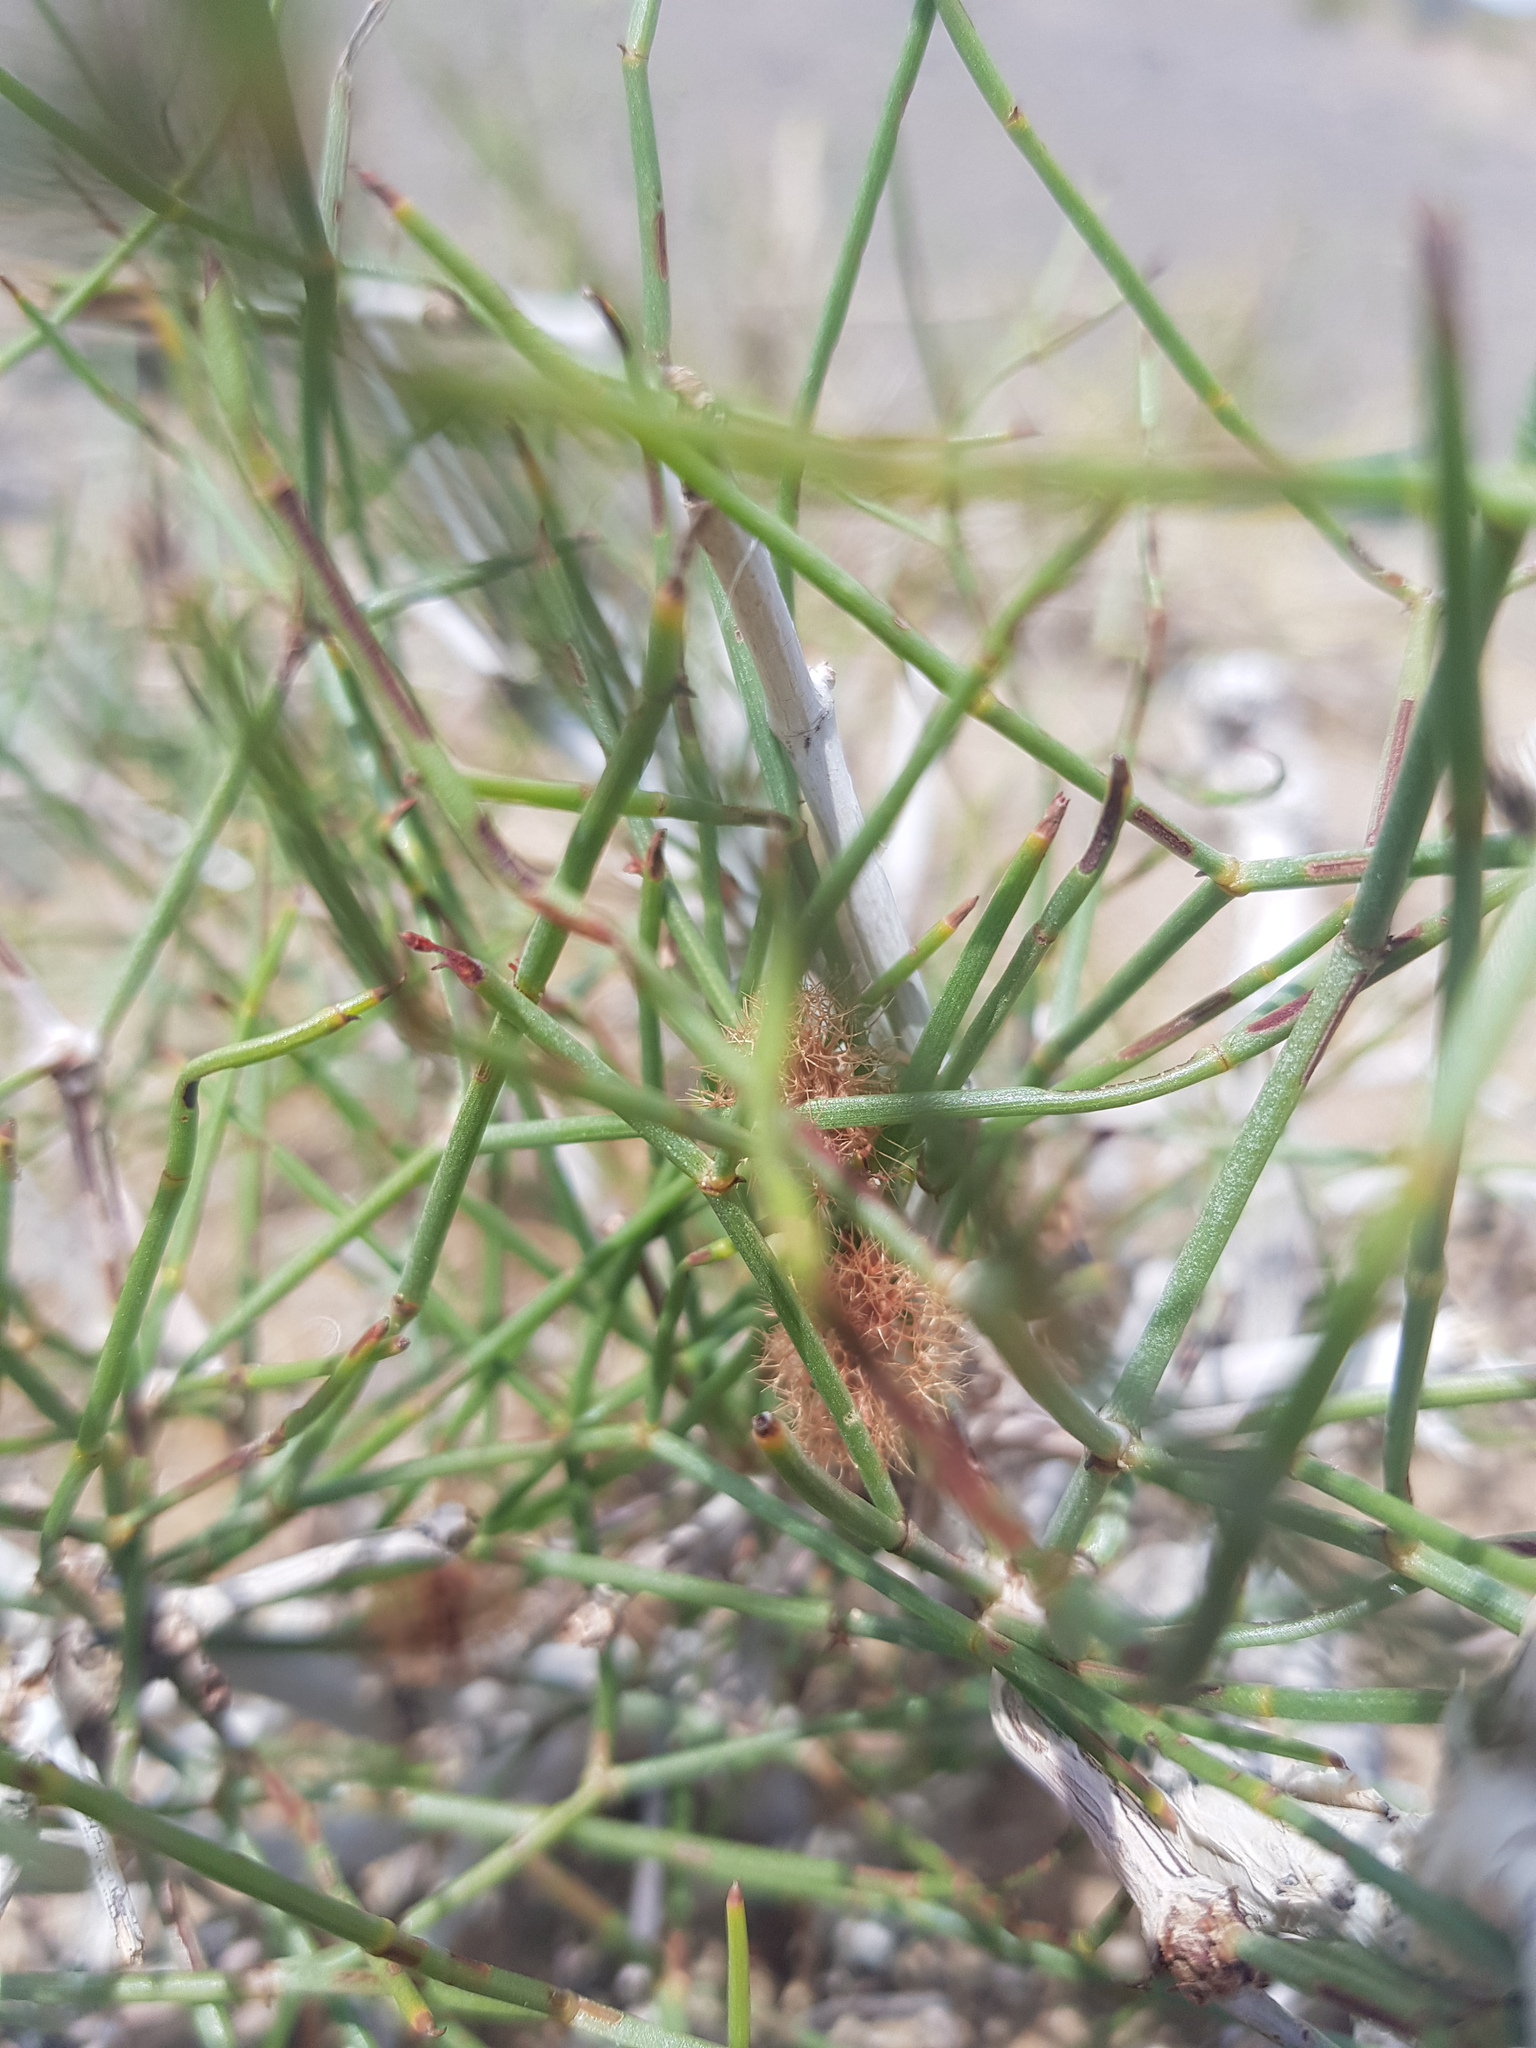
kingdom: Plantae
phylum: Tracheophyta
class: Magnoliopsida
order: Caryophyllales
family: Polygonaceae
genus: Calligonum
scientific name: Calligonum ebinuricum
